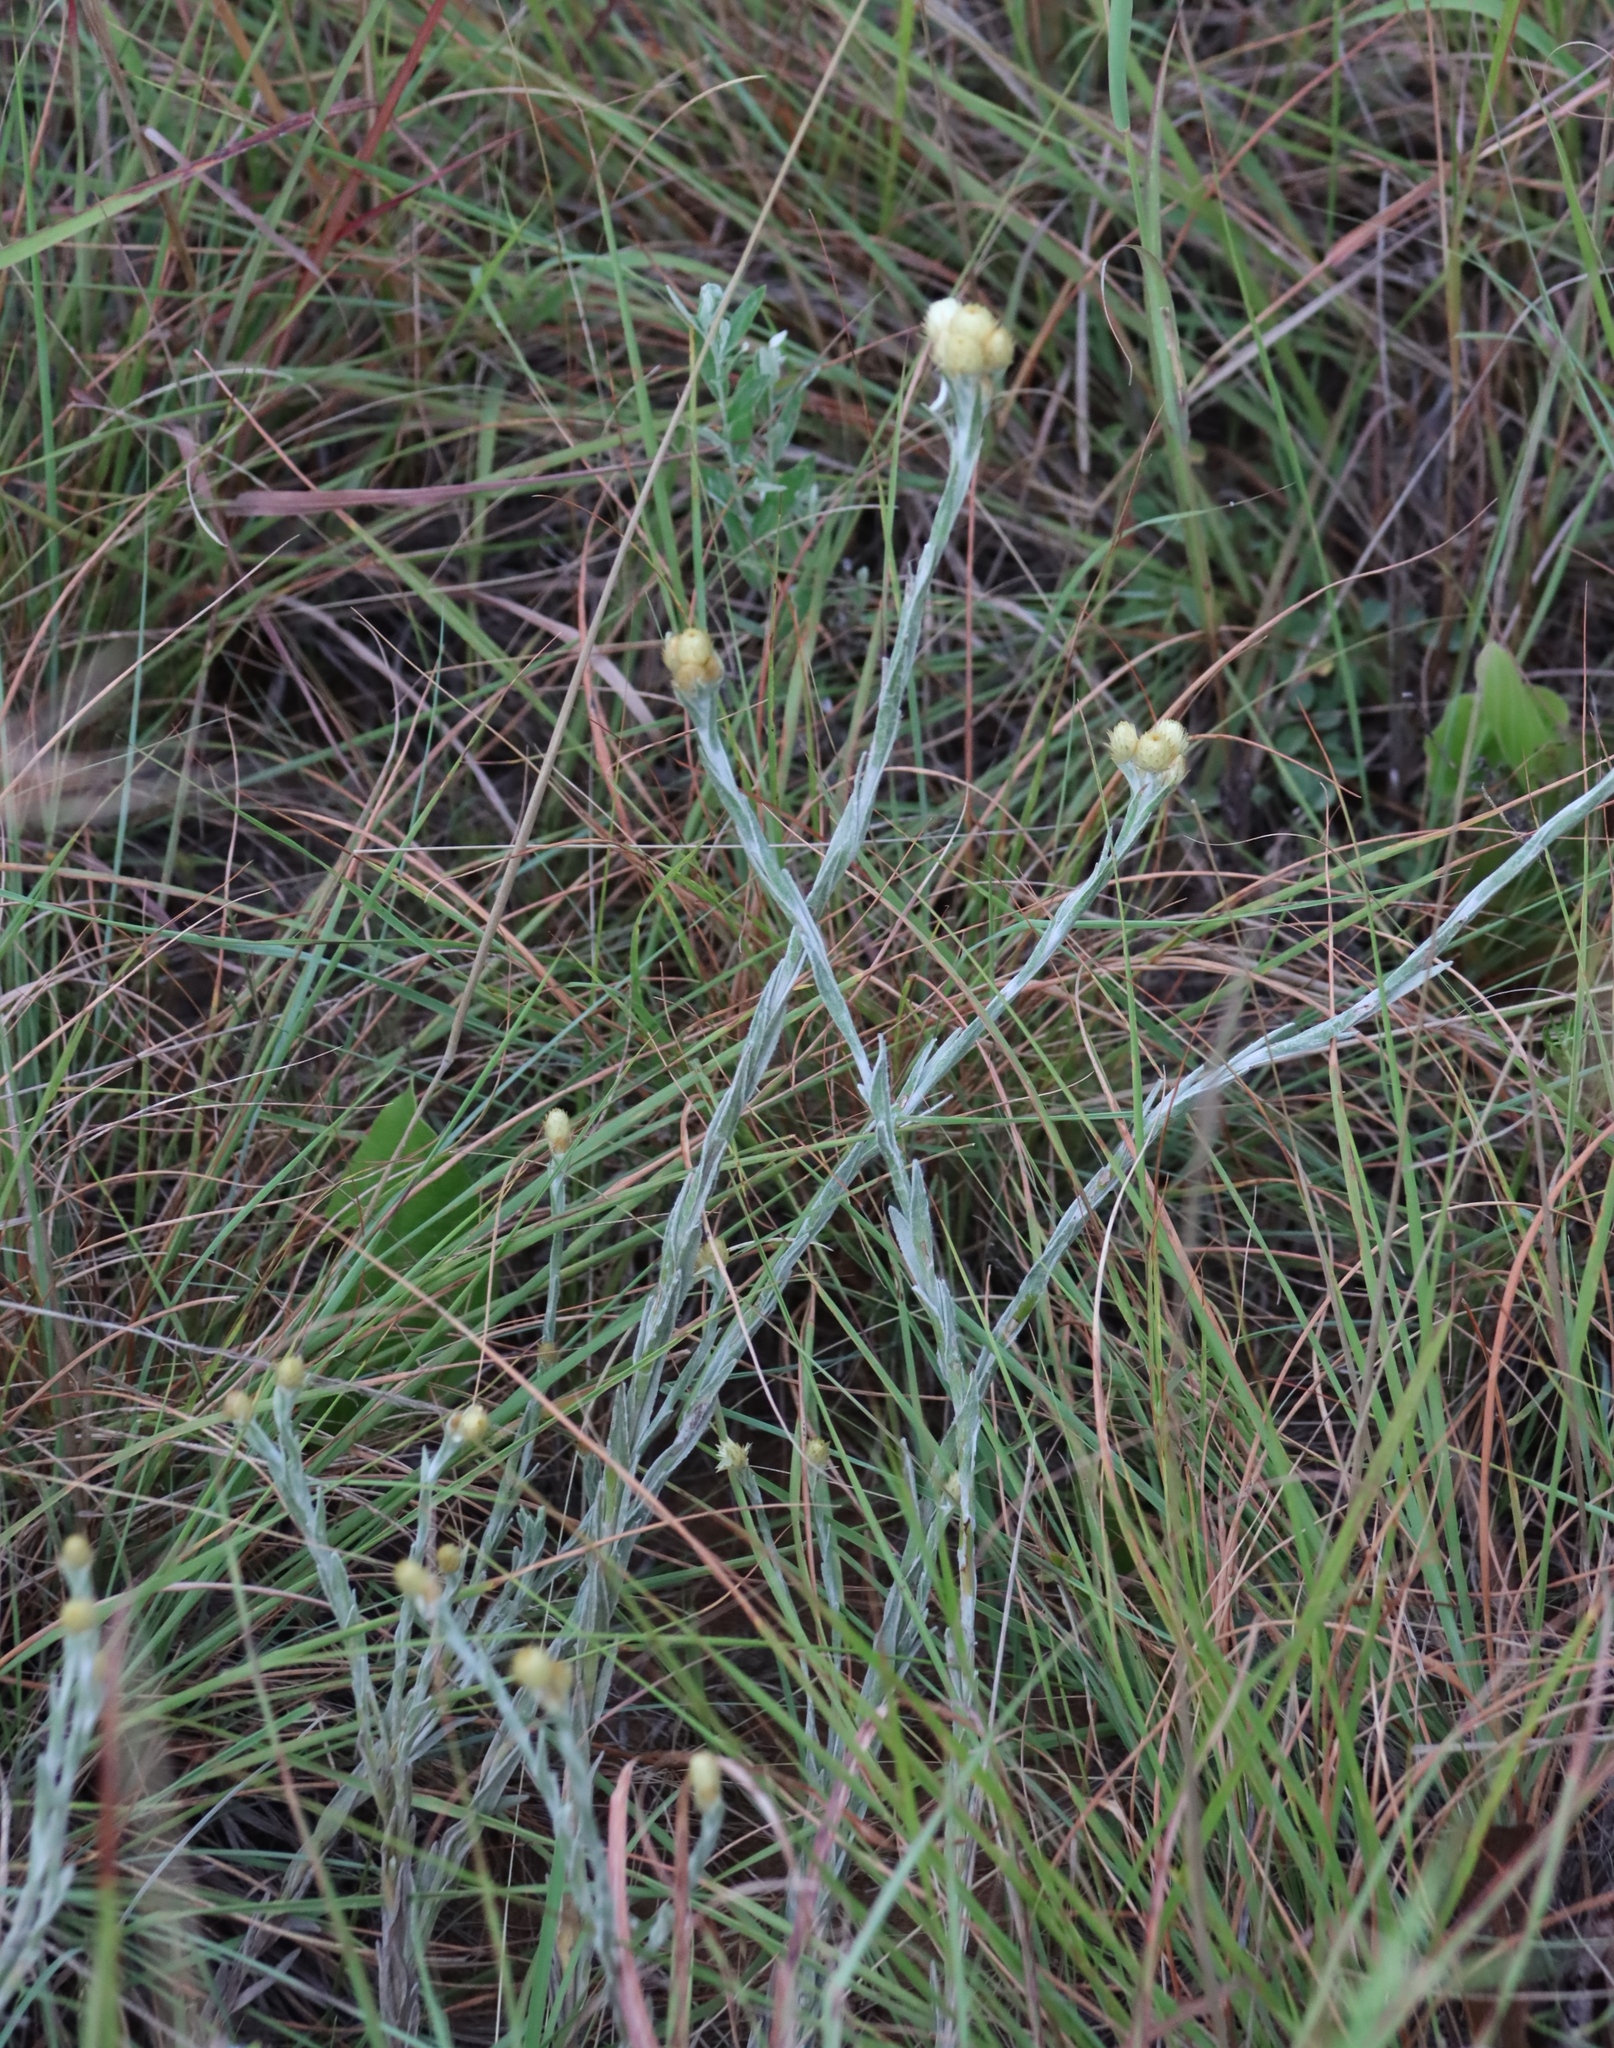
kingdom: Plantae
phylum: Tracheophyta
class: Magnoliopsida
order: Asterales
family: Asteraceae
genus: Helichrysum
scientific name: Helichrysum mixtum
